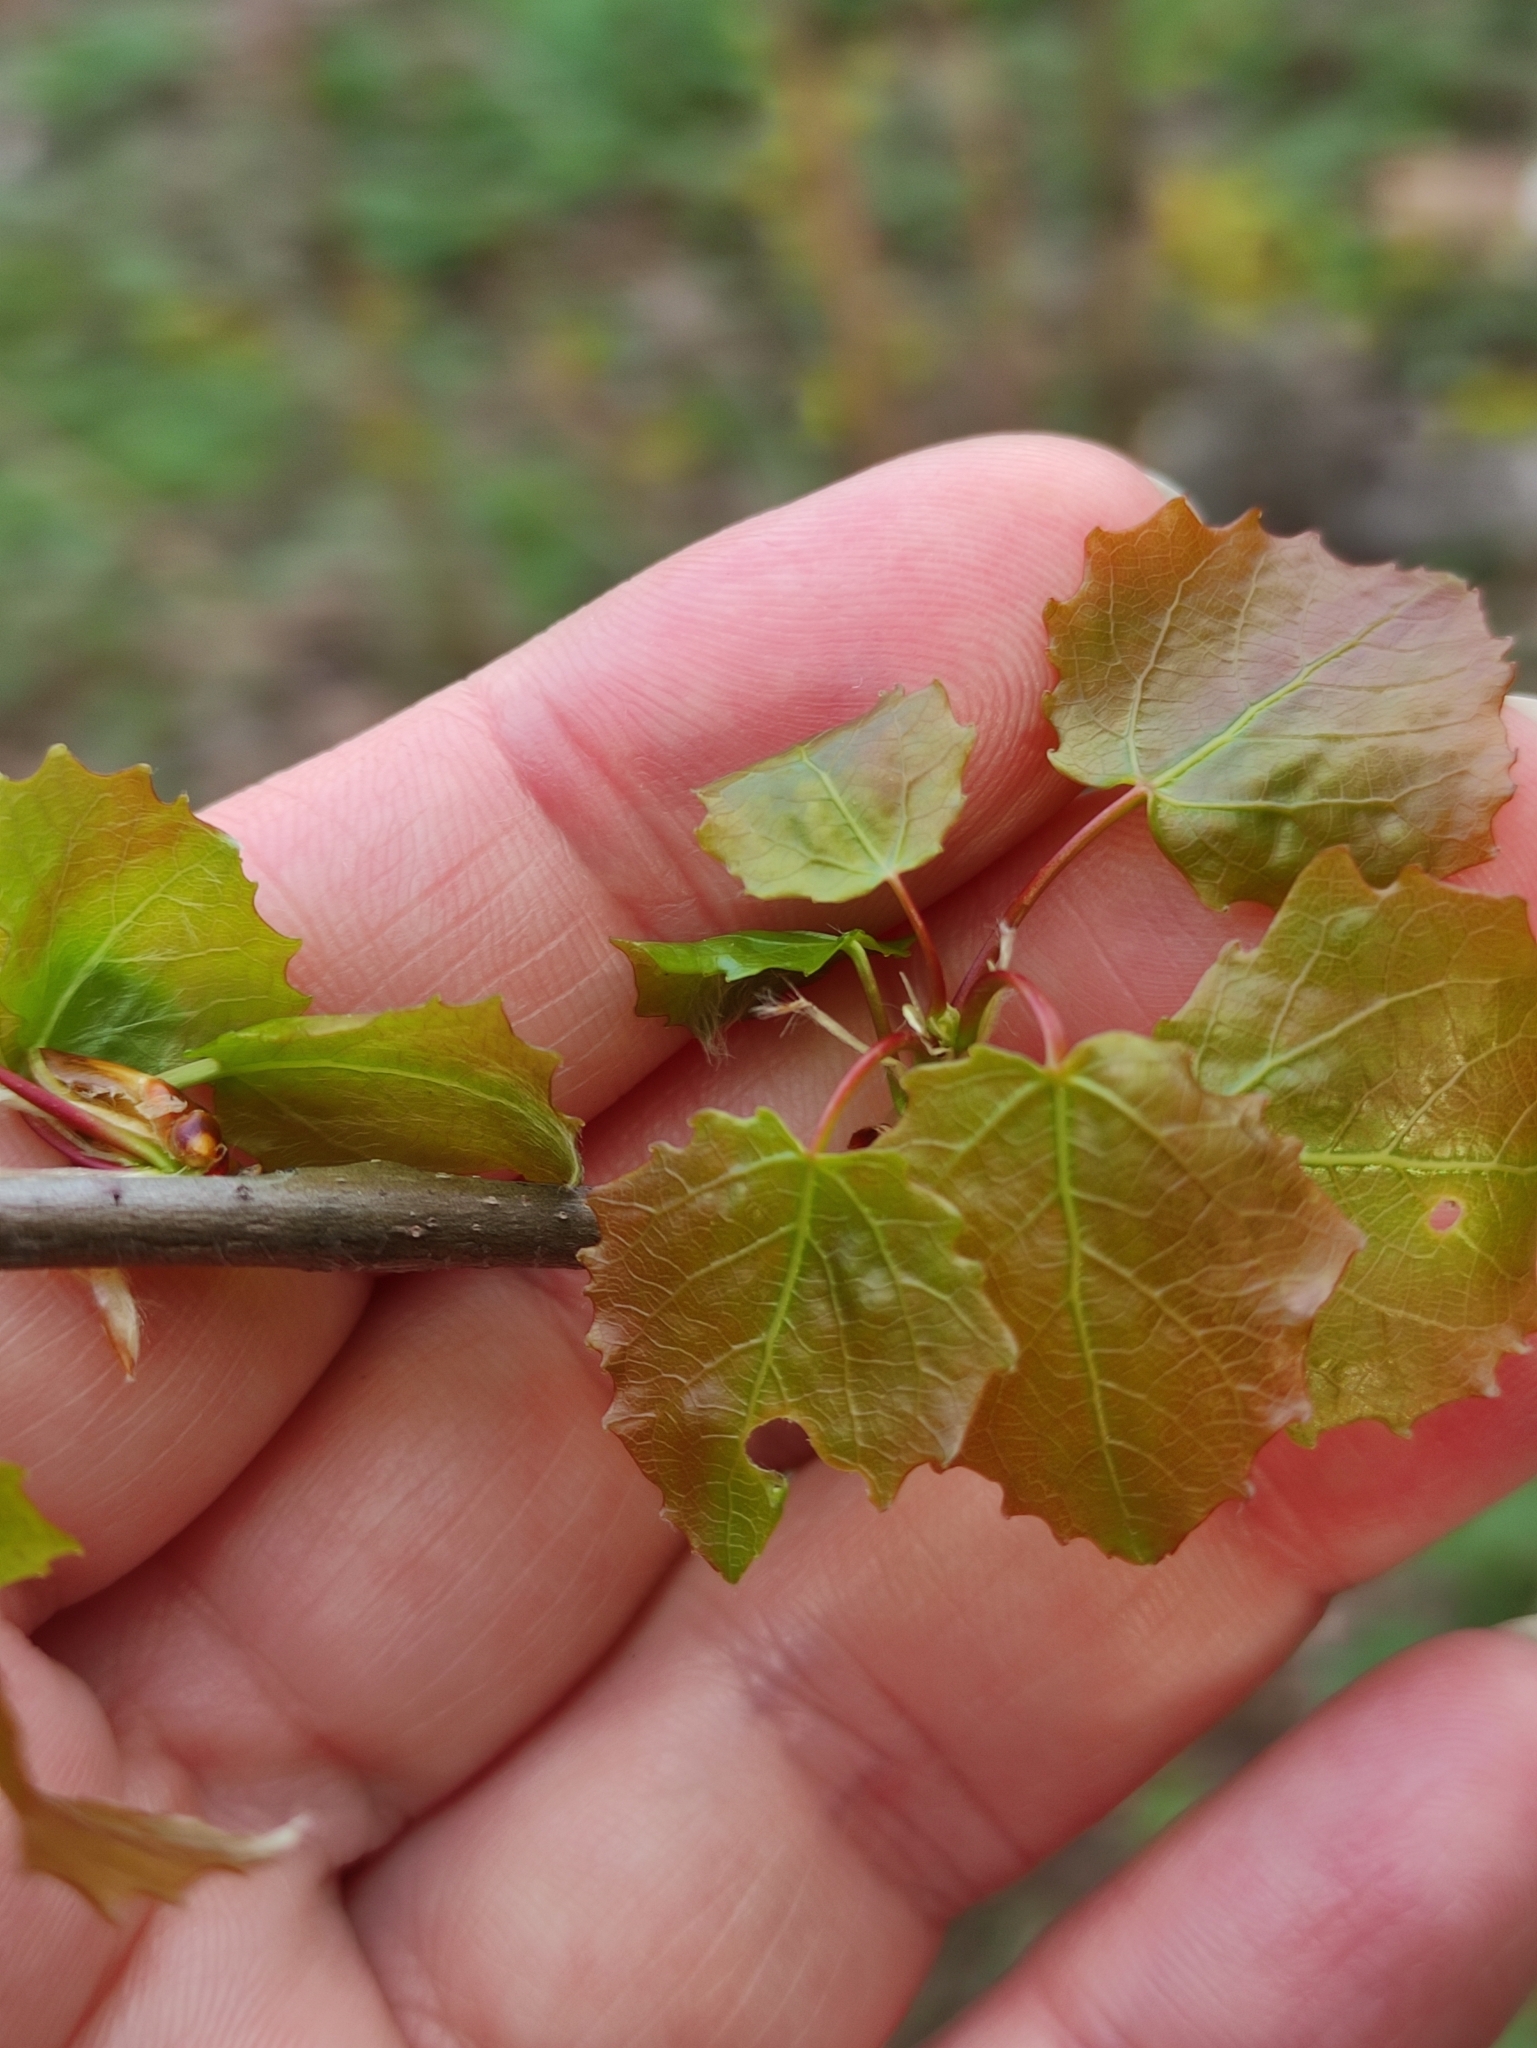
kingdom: Plantae
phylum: Tracheophyta
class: Magnoliopsida
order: Malpighiales
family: Salicaceae
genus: Populus
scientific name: Populus tremula
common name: European aspen
